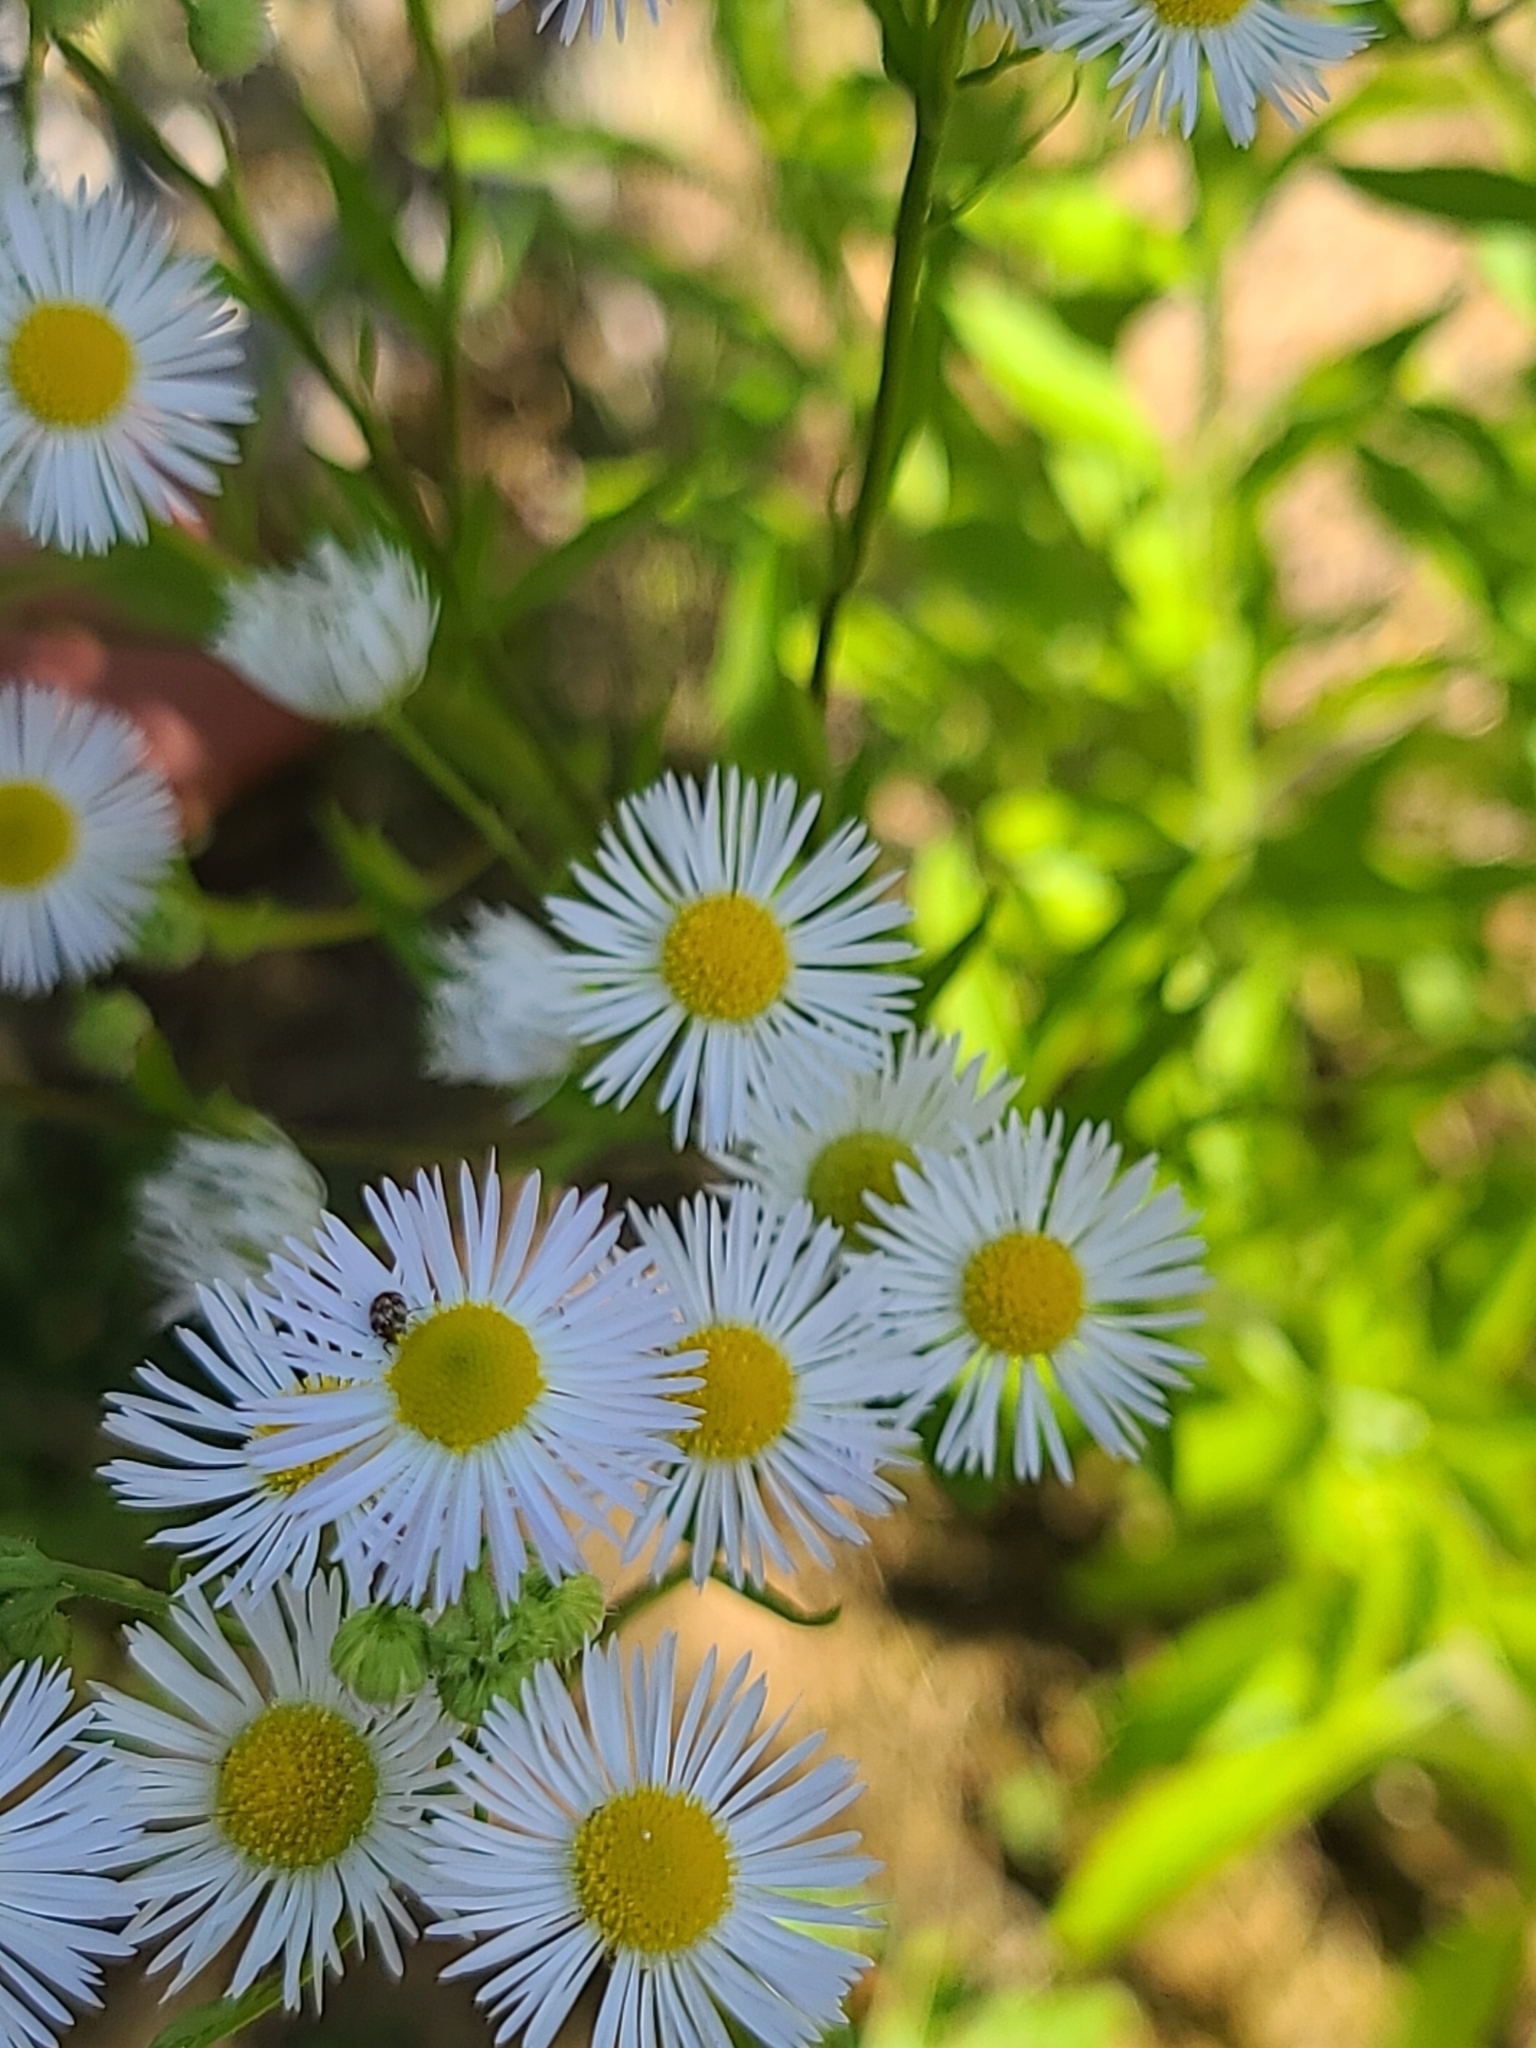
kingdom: Animalia
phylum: Arthropoda
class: Insecta
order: Coleoptera
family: Dermestidae
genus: Anthrenus
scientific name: Anthrenus verbasci
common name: Varied carpet beetle
